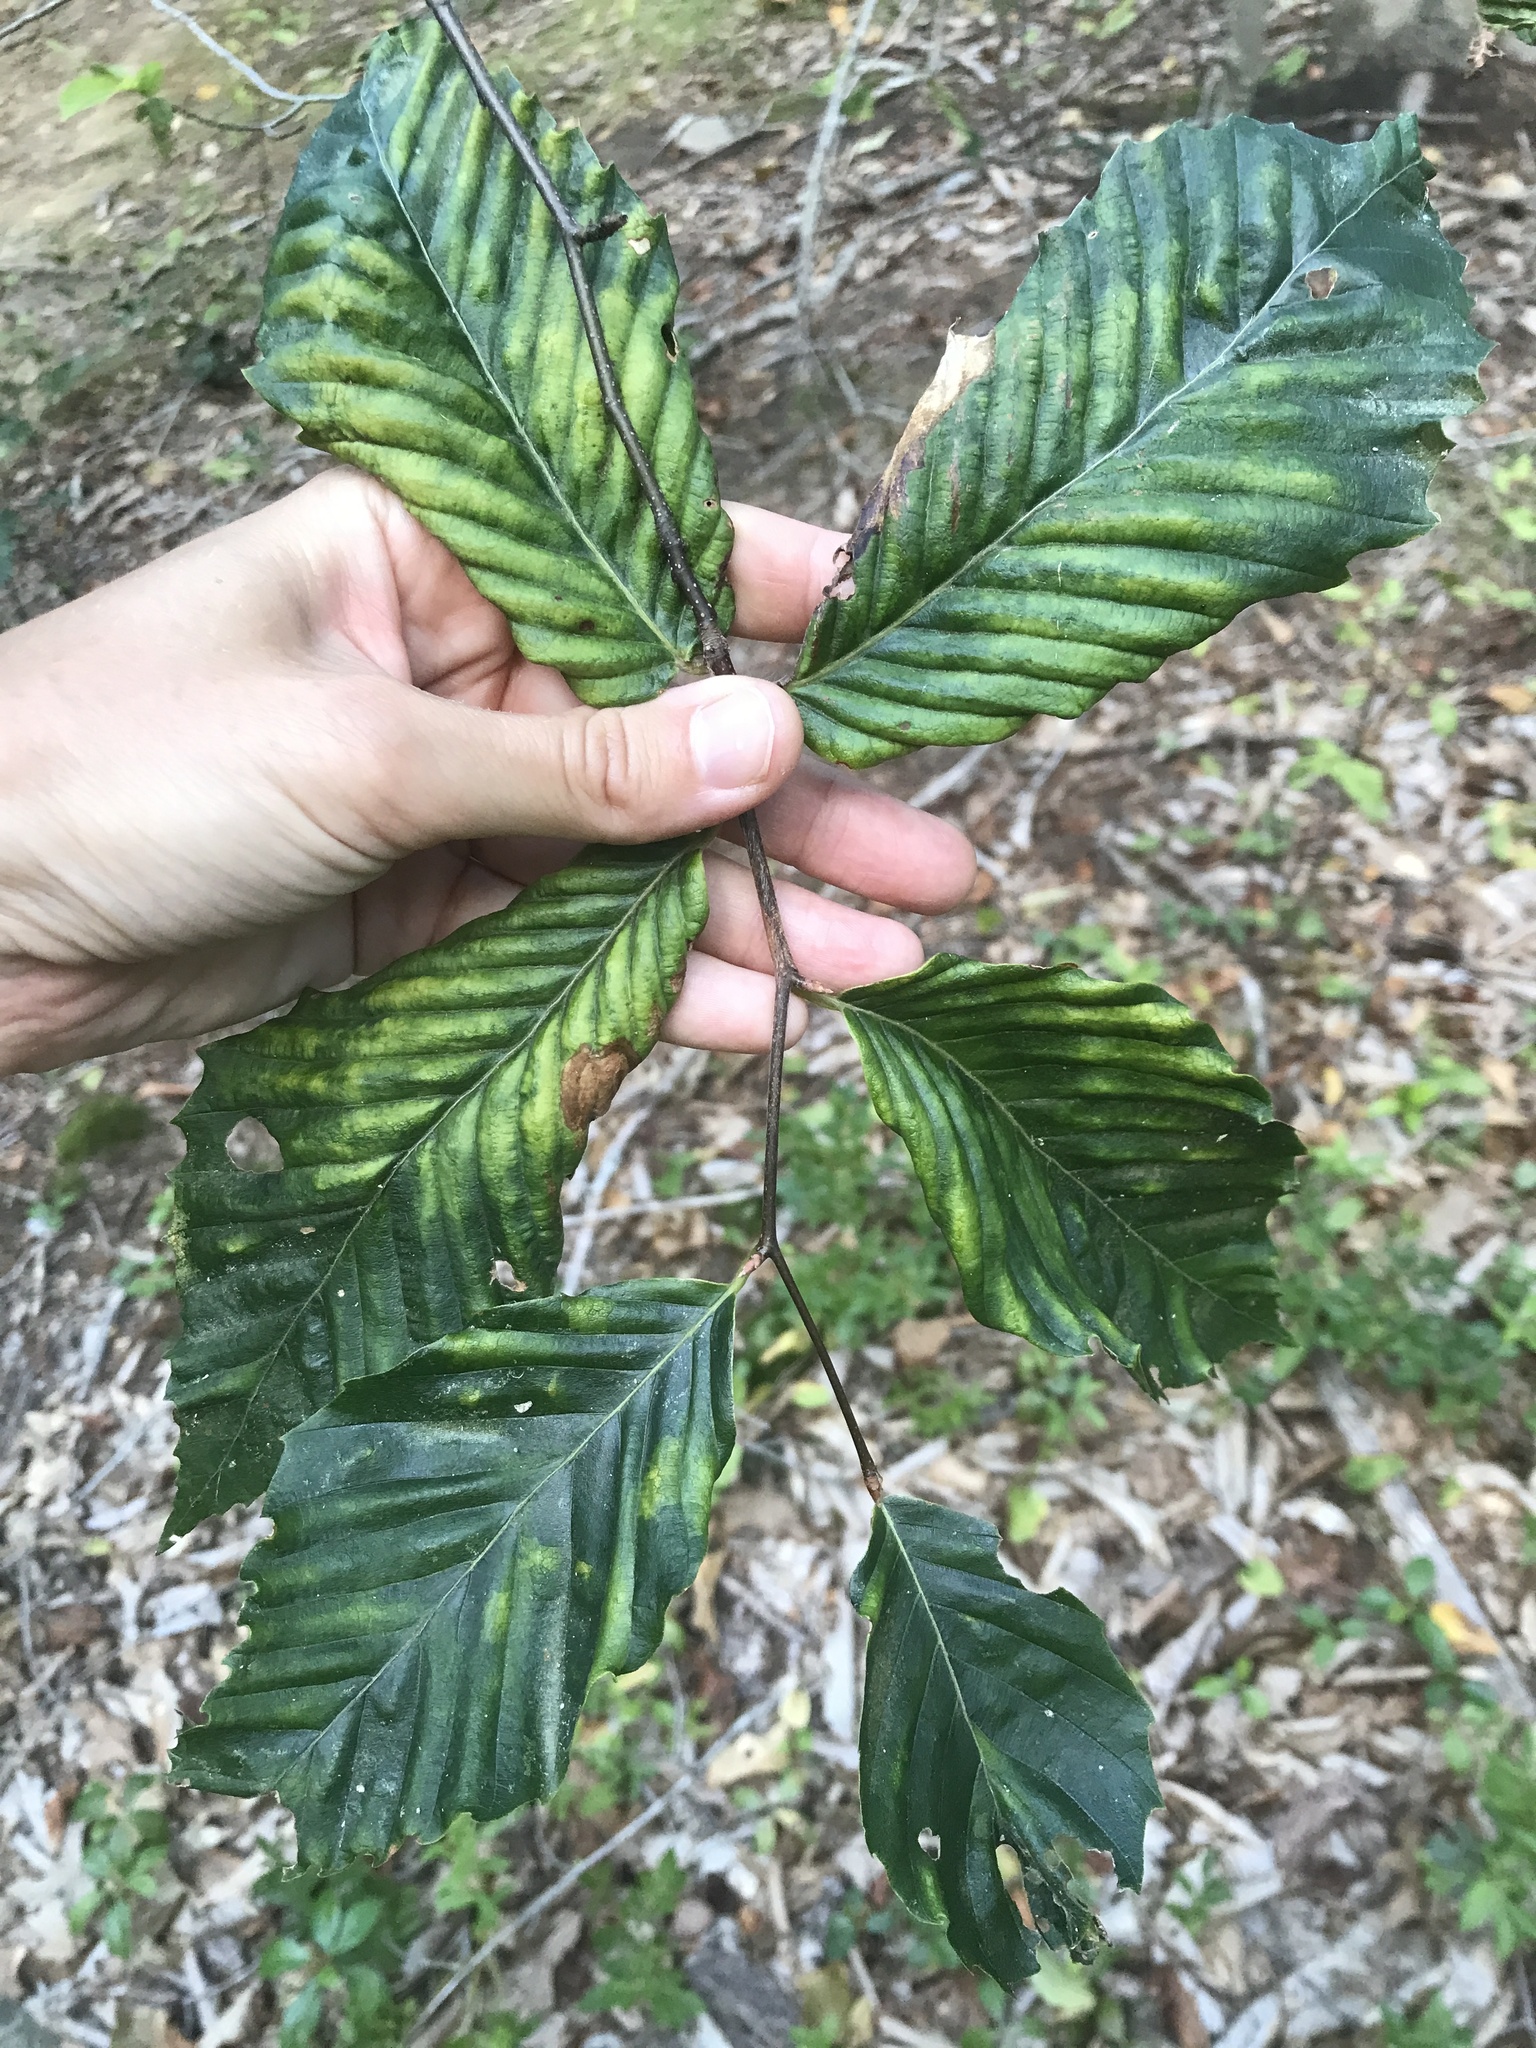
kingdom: Animalia
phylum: Nematoda
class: Chromadorea
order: Rhabditida
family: Anguinidae
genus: Litylenchus
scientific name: Litylenchus crenatae
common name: Beech leaf disease
